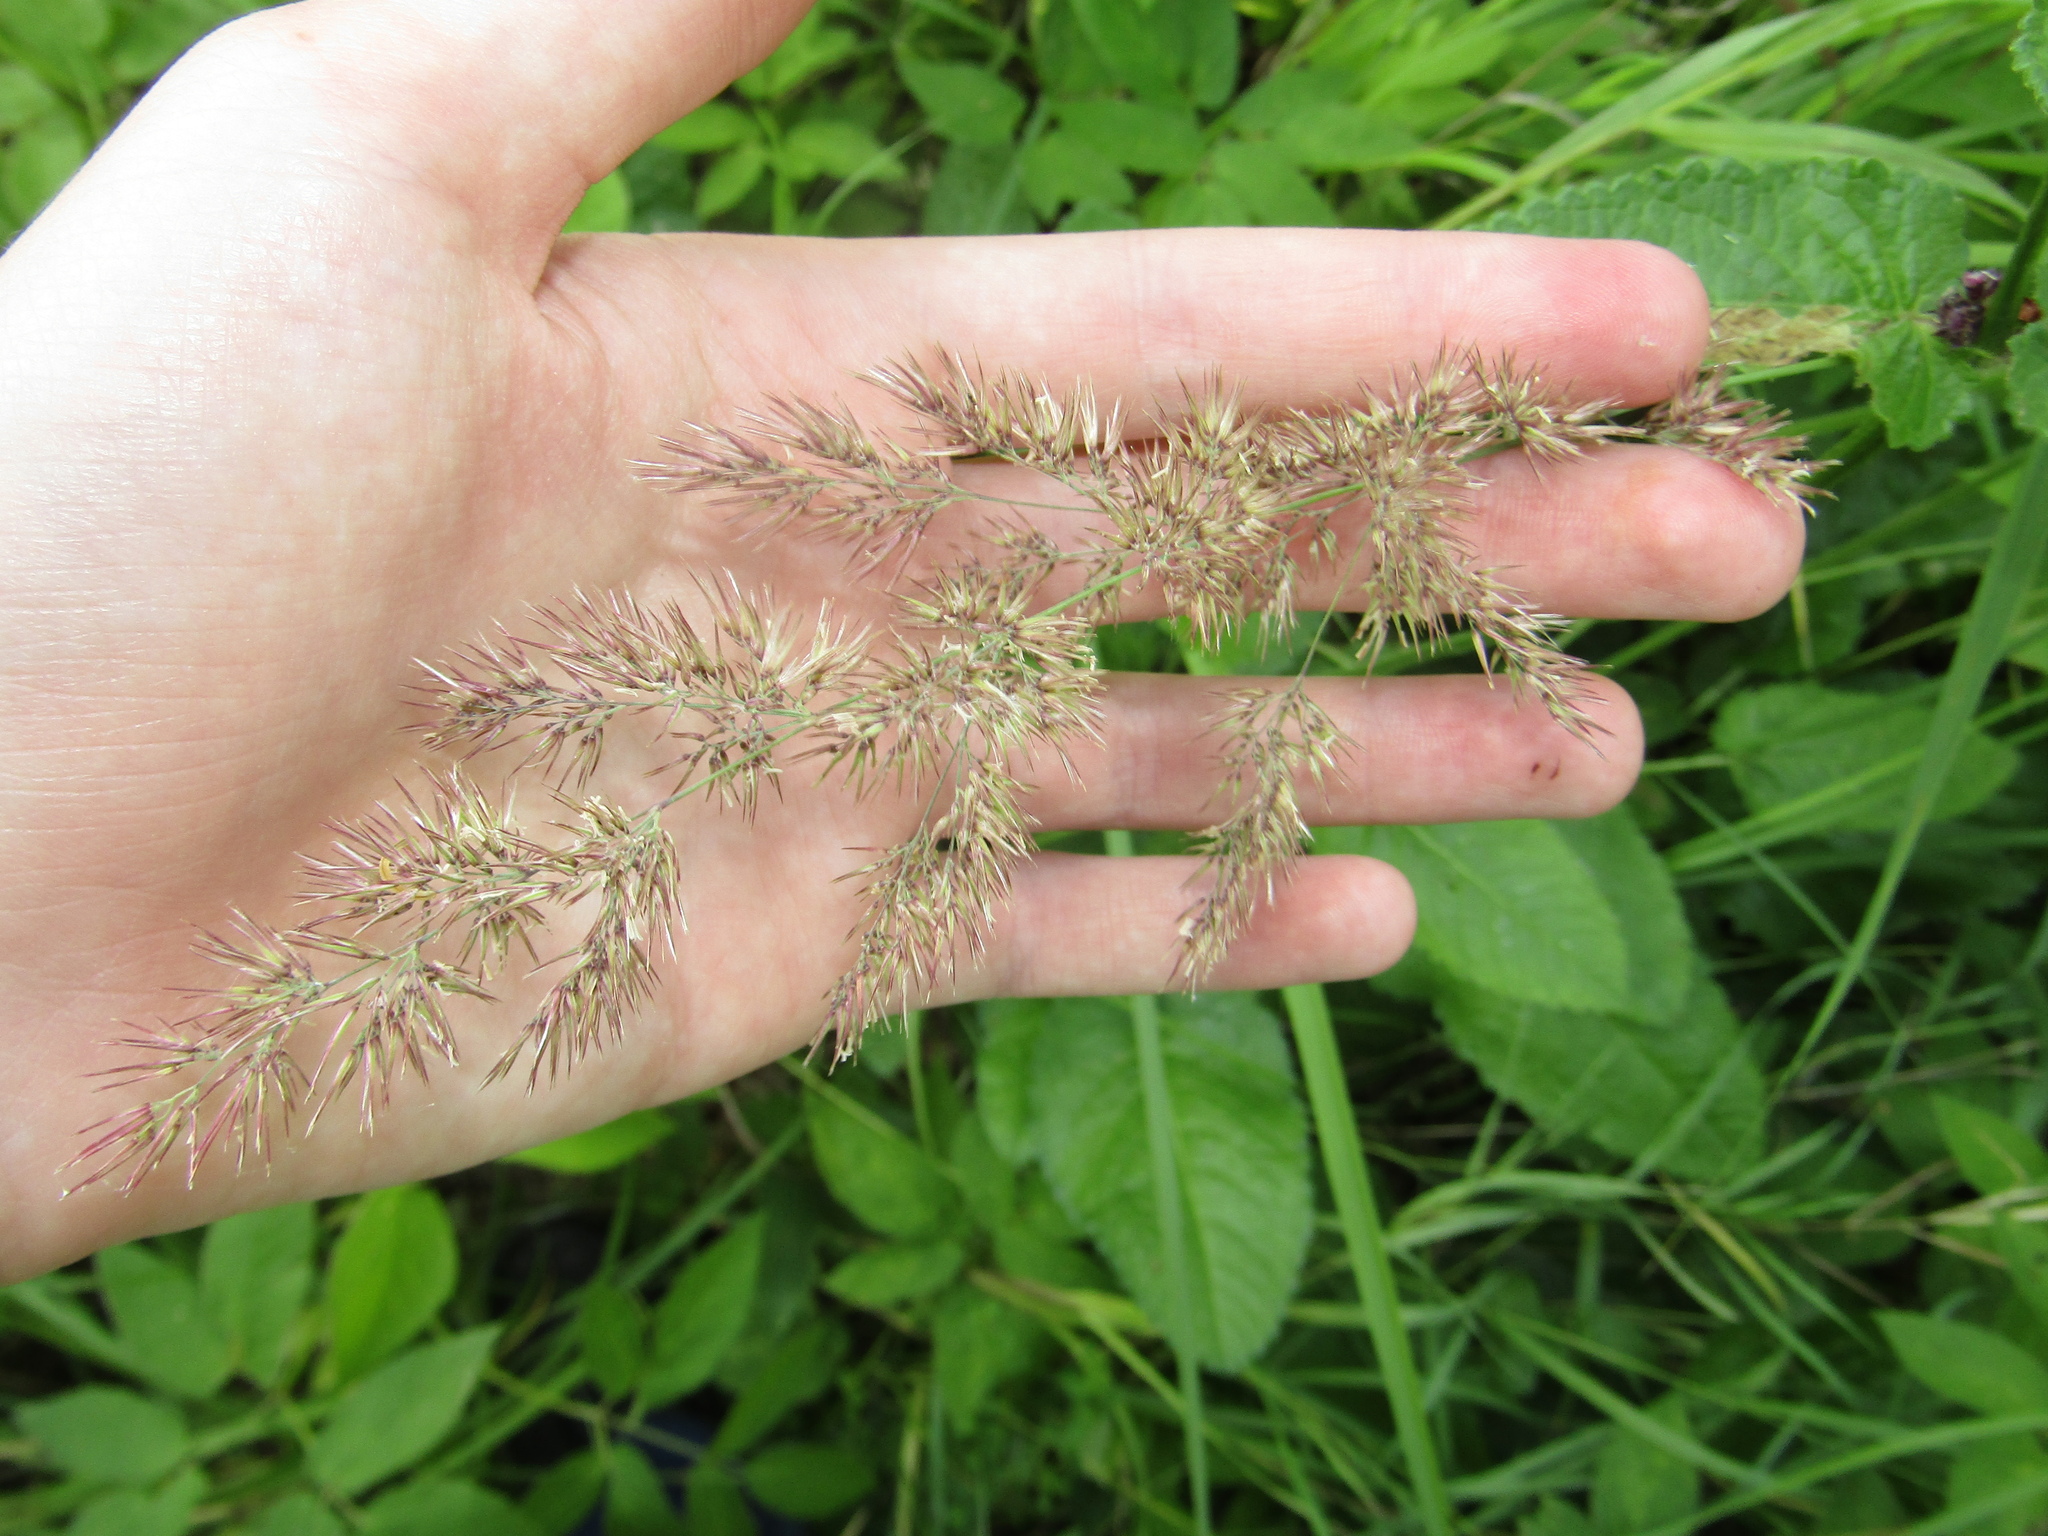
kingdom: Plantae
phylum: Tracheophyta
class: Liliopsida
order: Poales
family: Poaceae
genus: Calamagrostis
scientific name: Calamagrostis epigejos
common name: Wood small-reed
